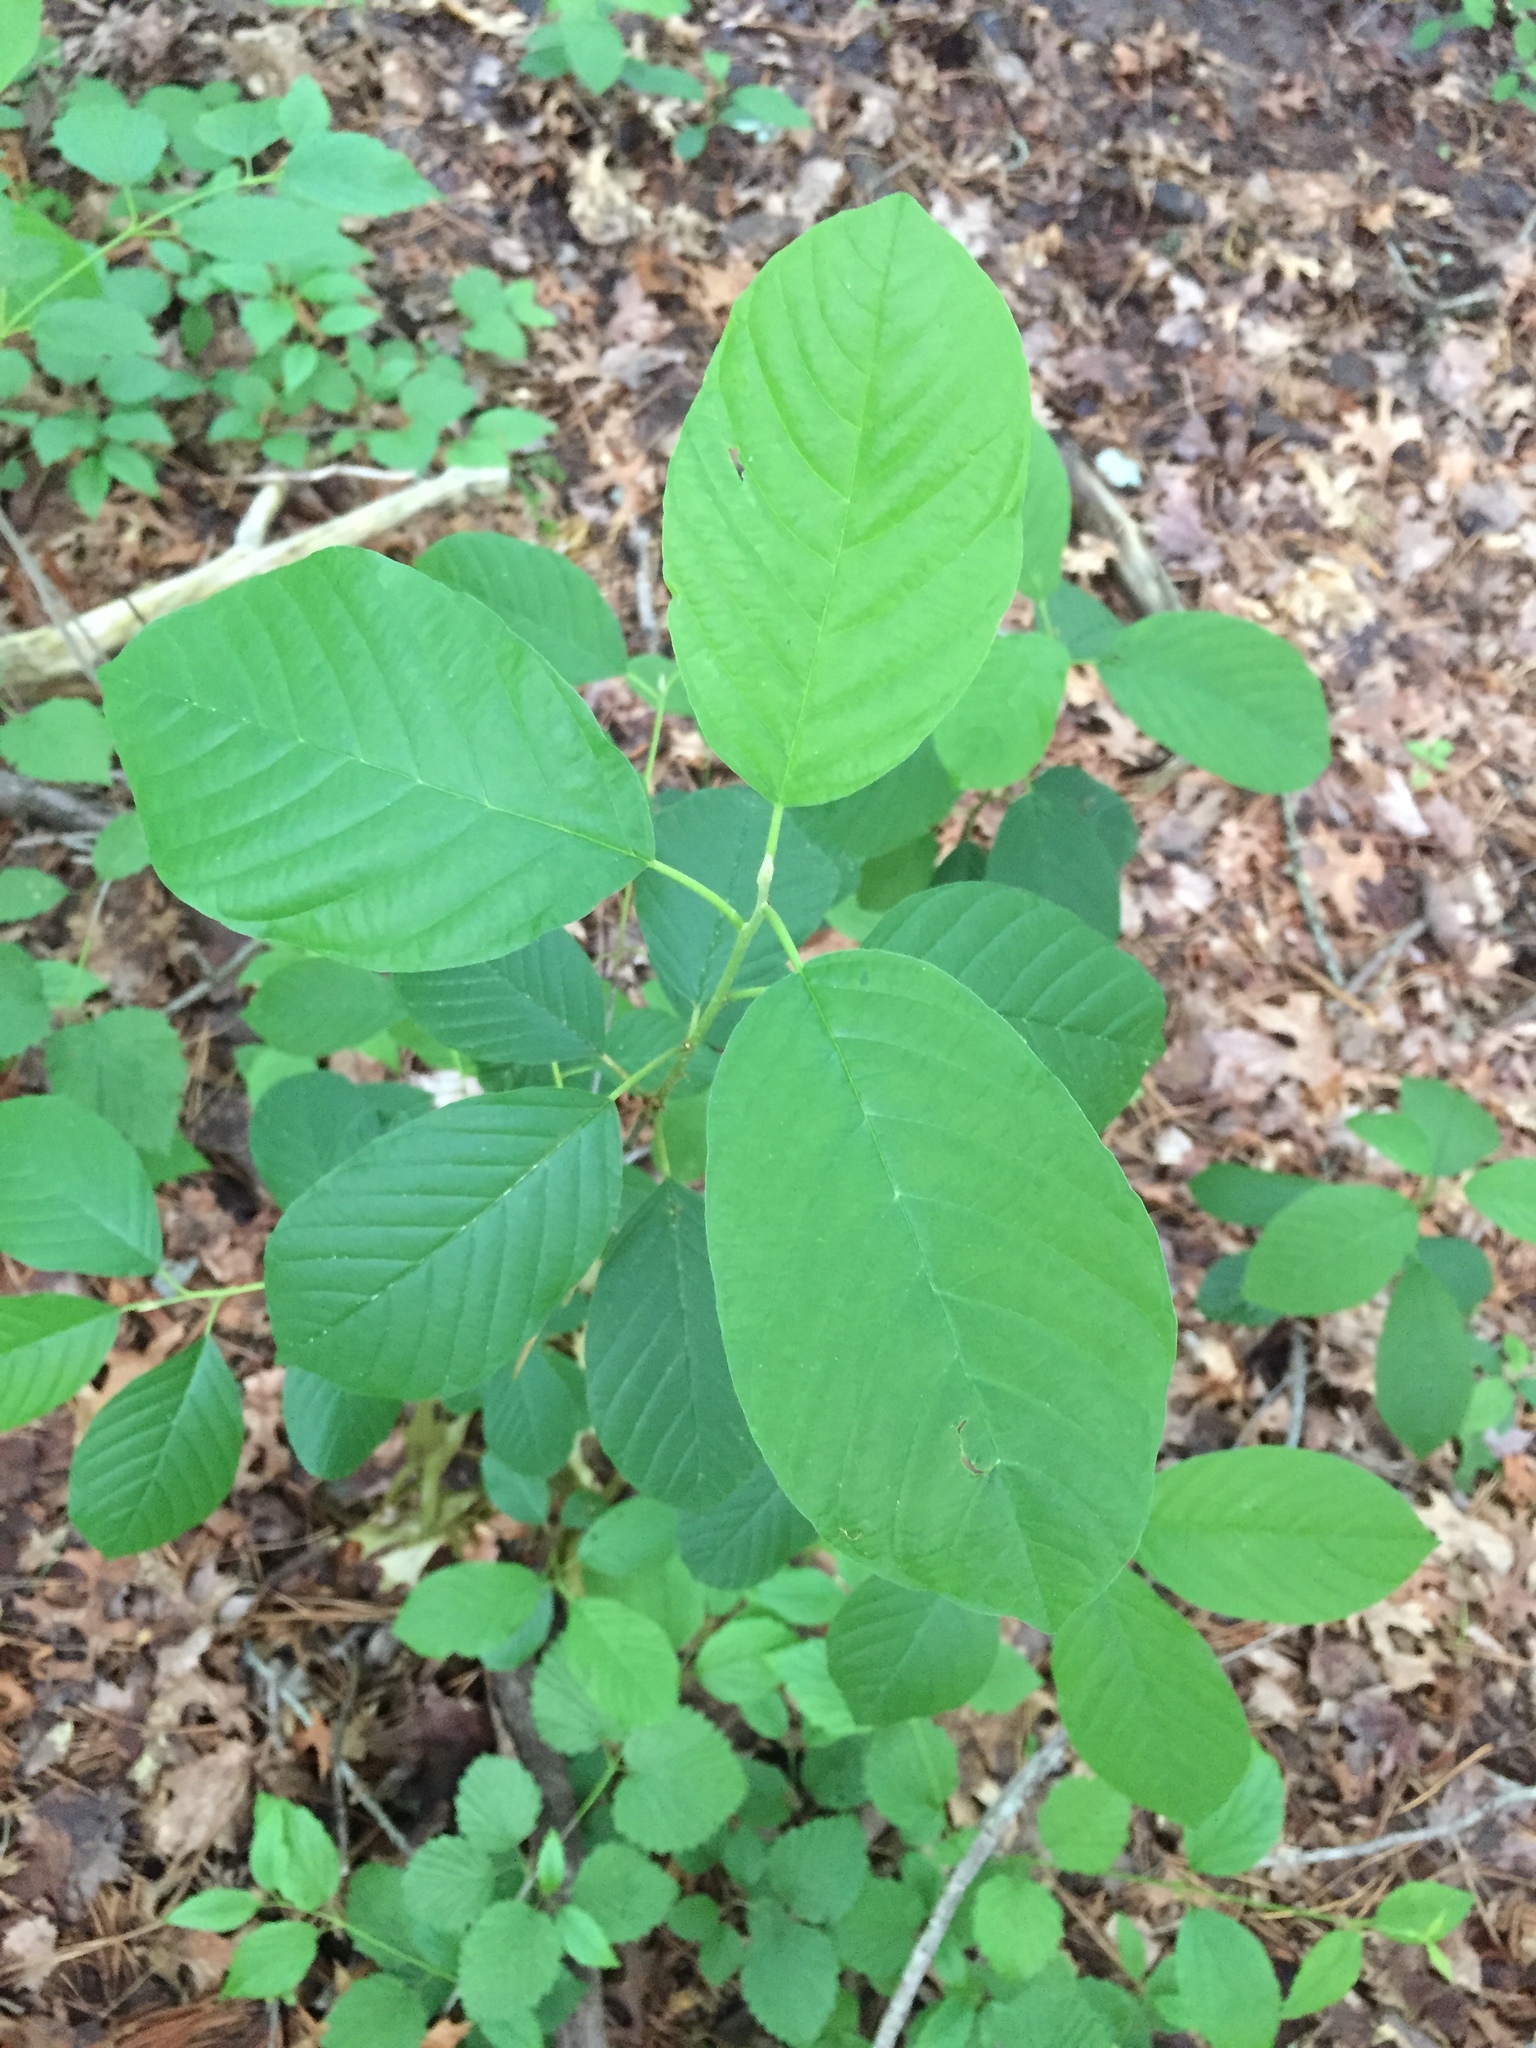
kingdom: Plantae
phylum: Tracheophyta
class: Magnoliopsida
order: Rosales
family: Rhamnaceae
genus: Frangula
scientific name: Frangula alnus
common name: Alder buckthorn
